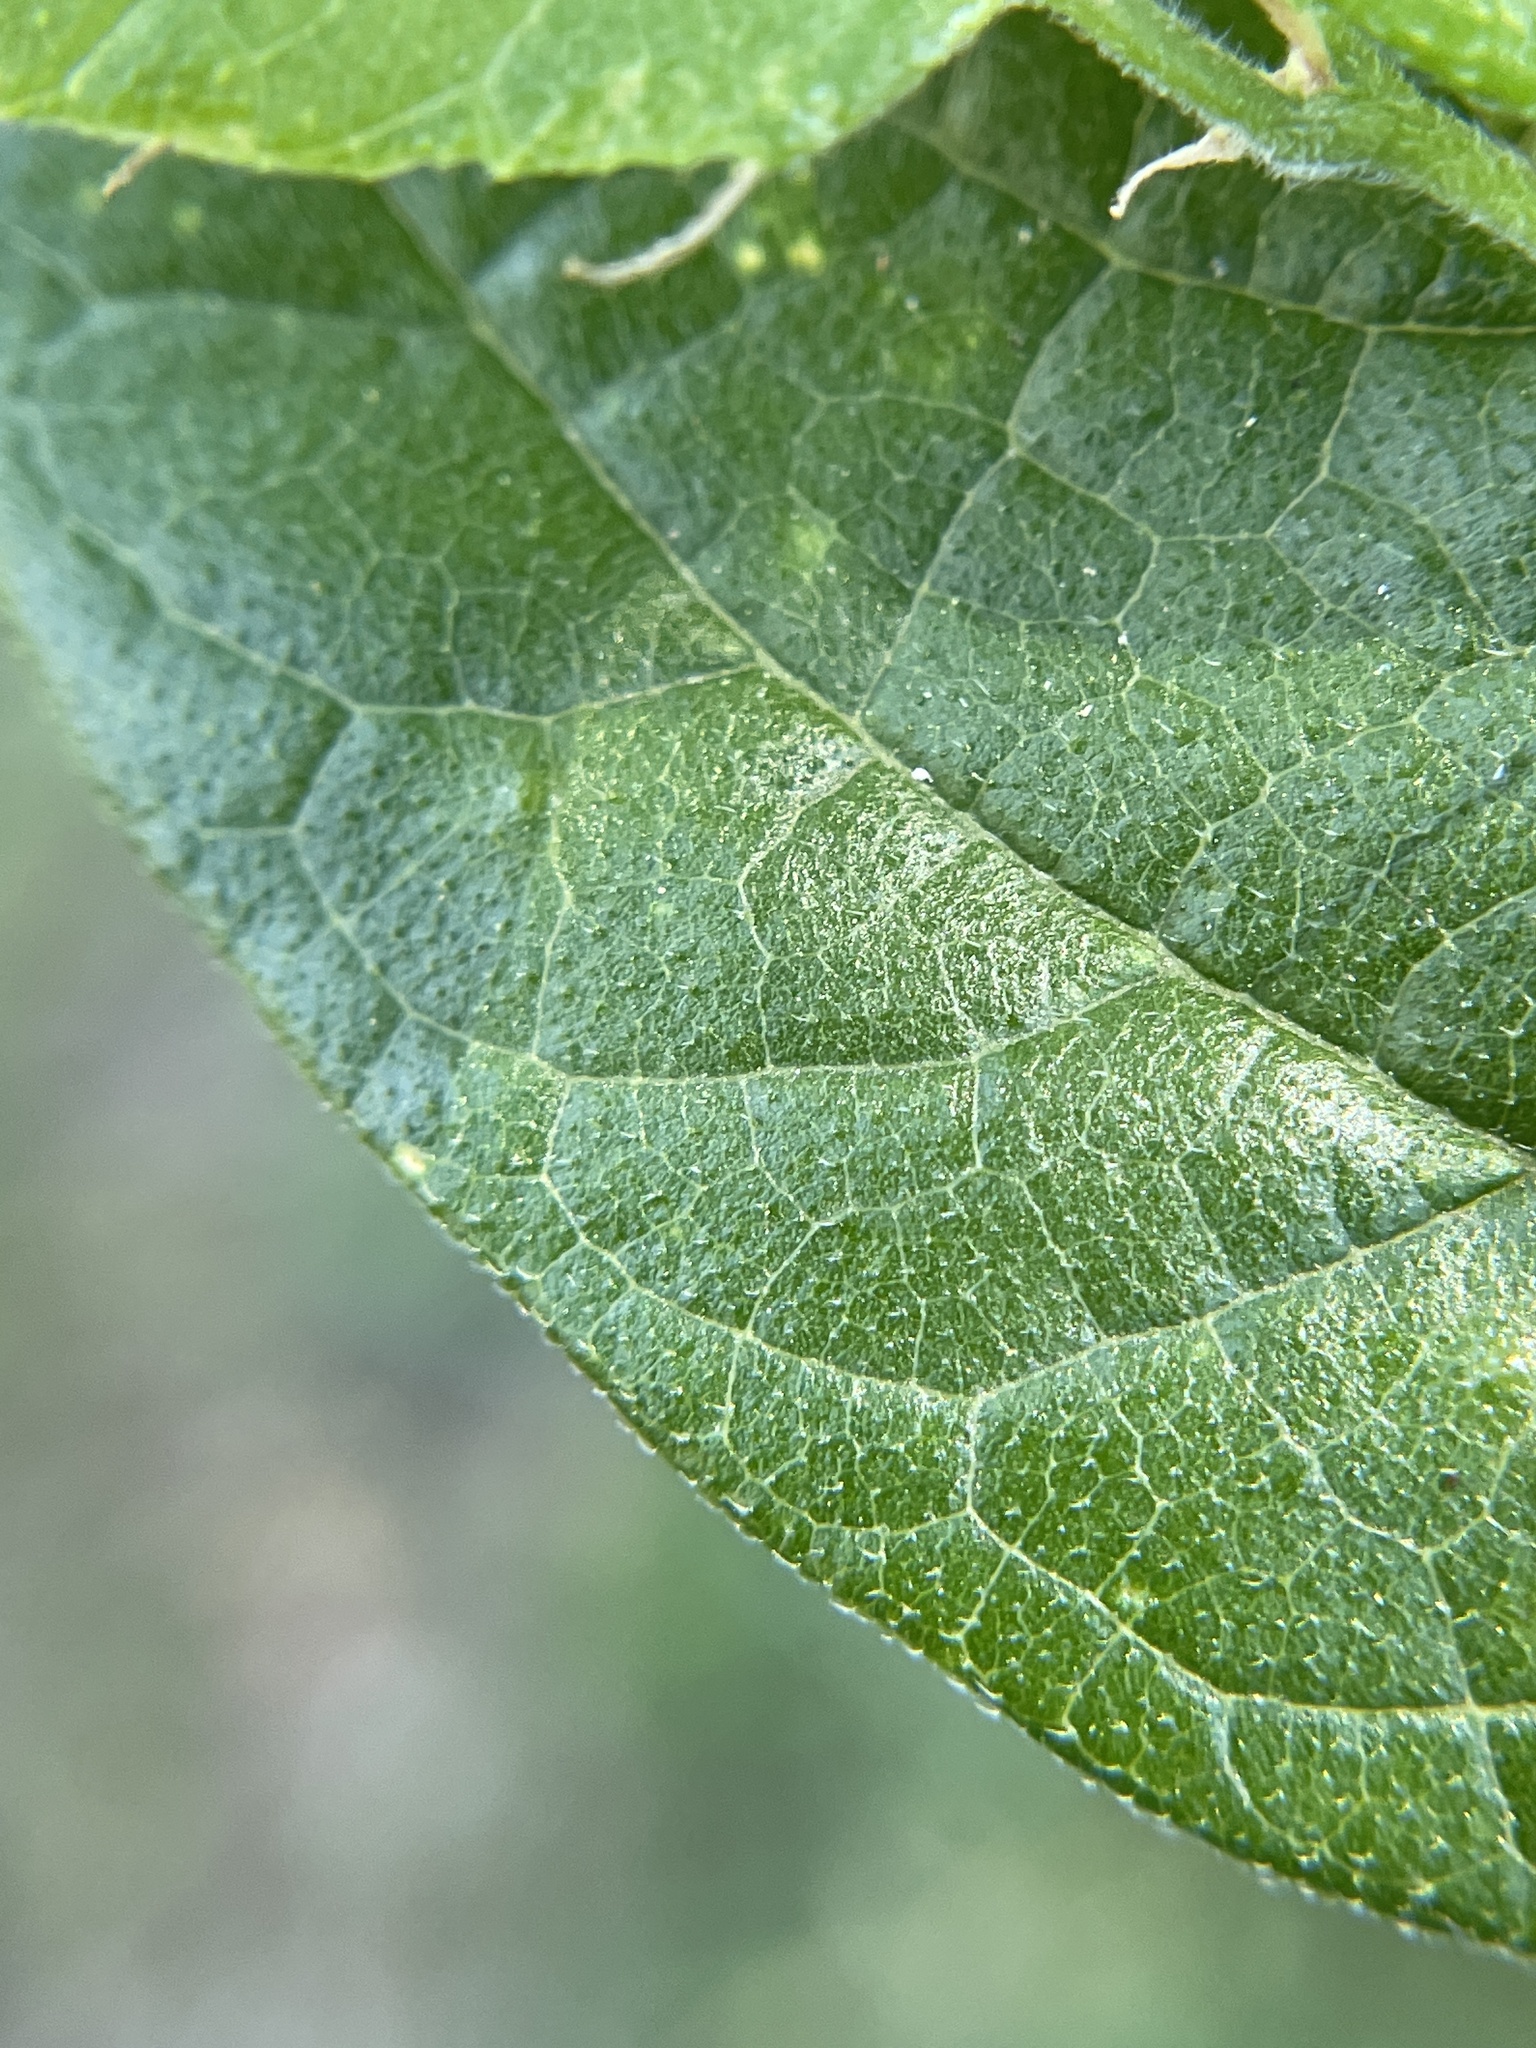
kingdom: Animalia
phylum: Arthropoda
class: Insecta
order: Diptera
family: Cecidomyiidae
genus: Celticecis
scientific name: Celticecis aciculata
